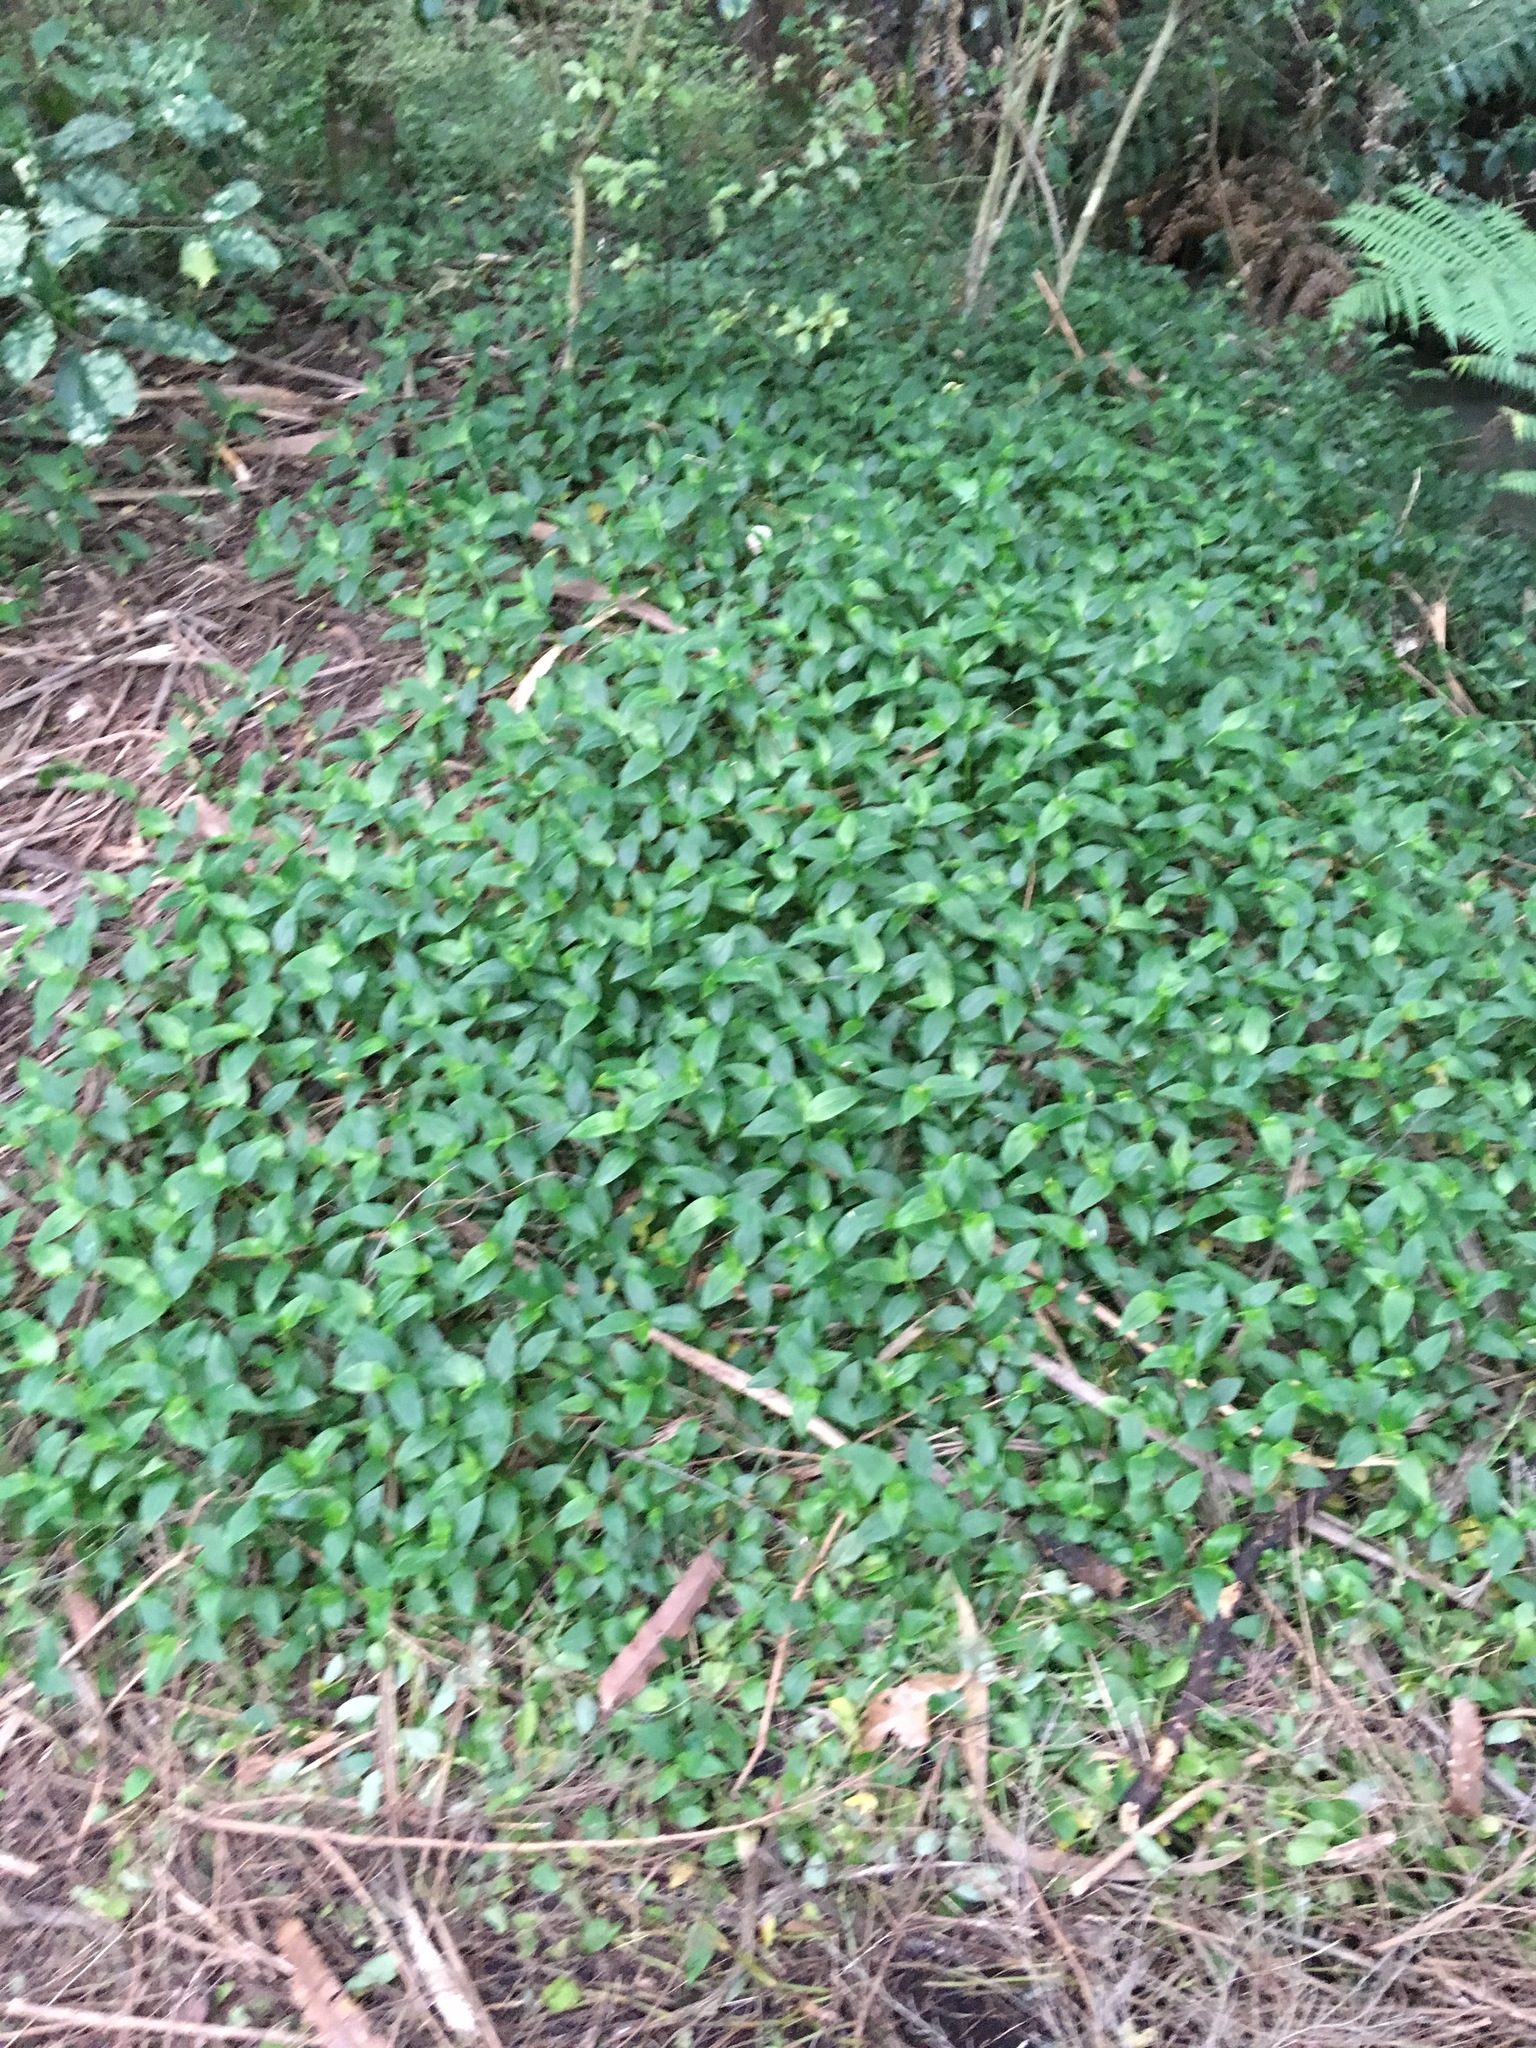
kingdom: Plantae
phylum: Tracheophyta
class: Liliopsida
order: Commelinales
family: Commelinaceae
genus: Tradescantia
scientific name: Tradescantia fluminensis
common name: Wandering-jew
